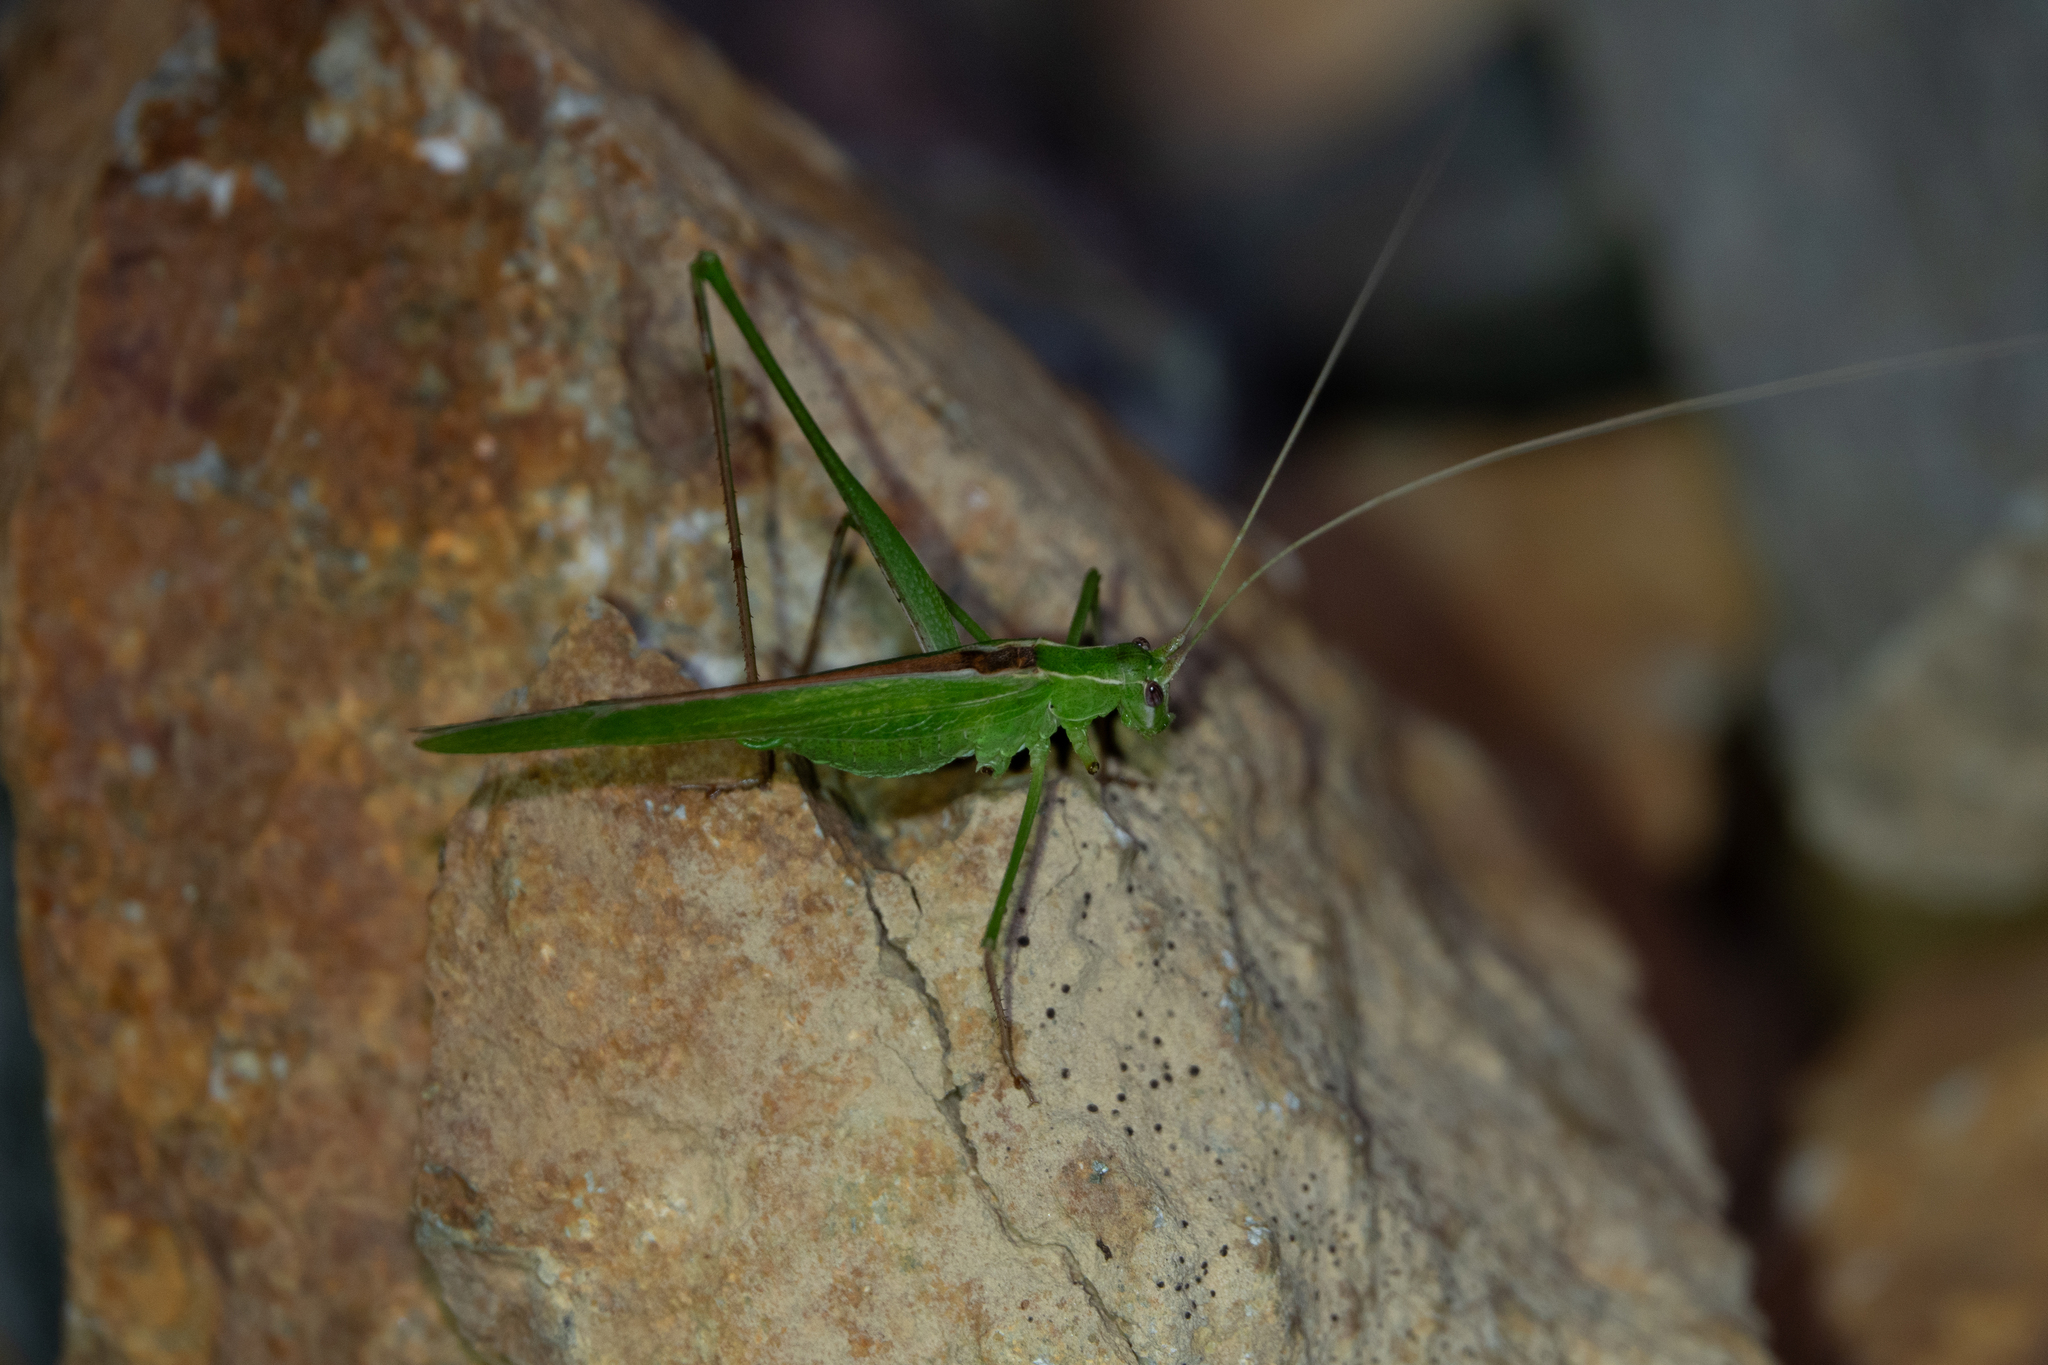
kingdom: Animalia
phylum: Arthropoda
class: Insecta
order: Orthoptera
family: Tettigoniidae
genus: Tylopsis
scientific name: Tylopsis lilifolia
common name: Lily bush-cricket
